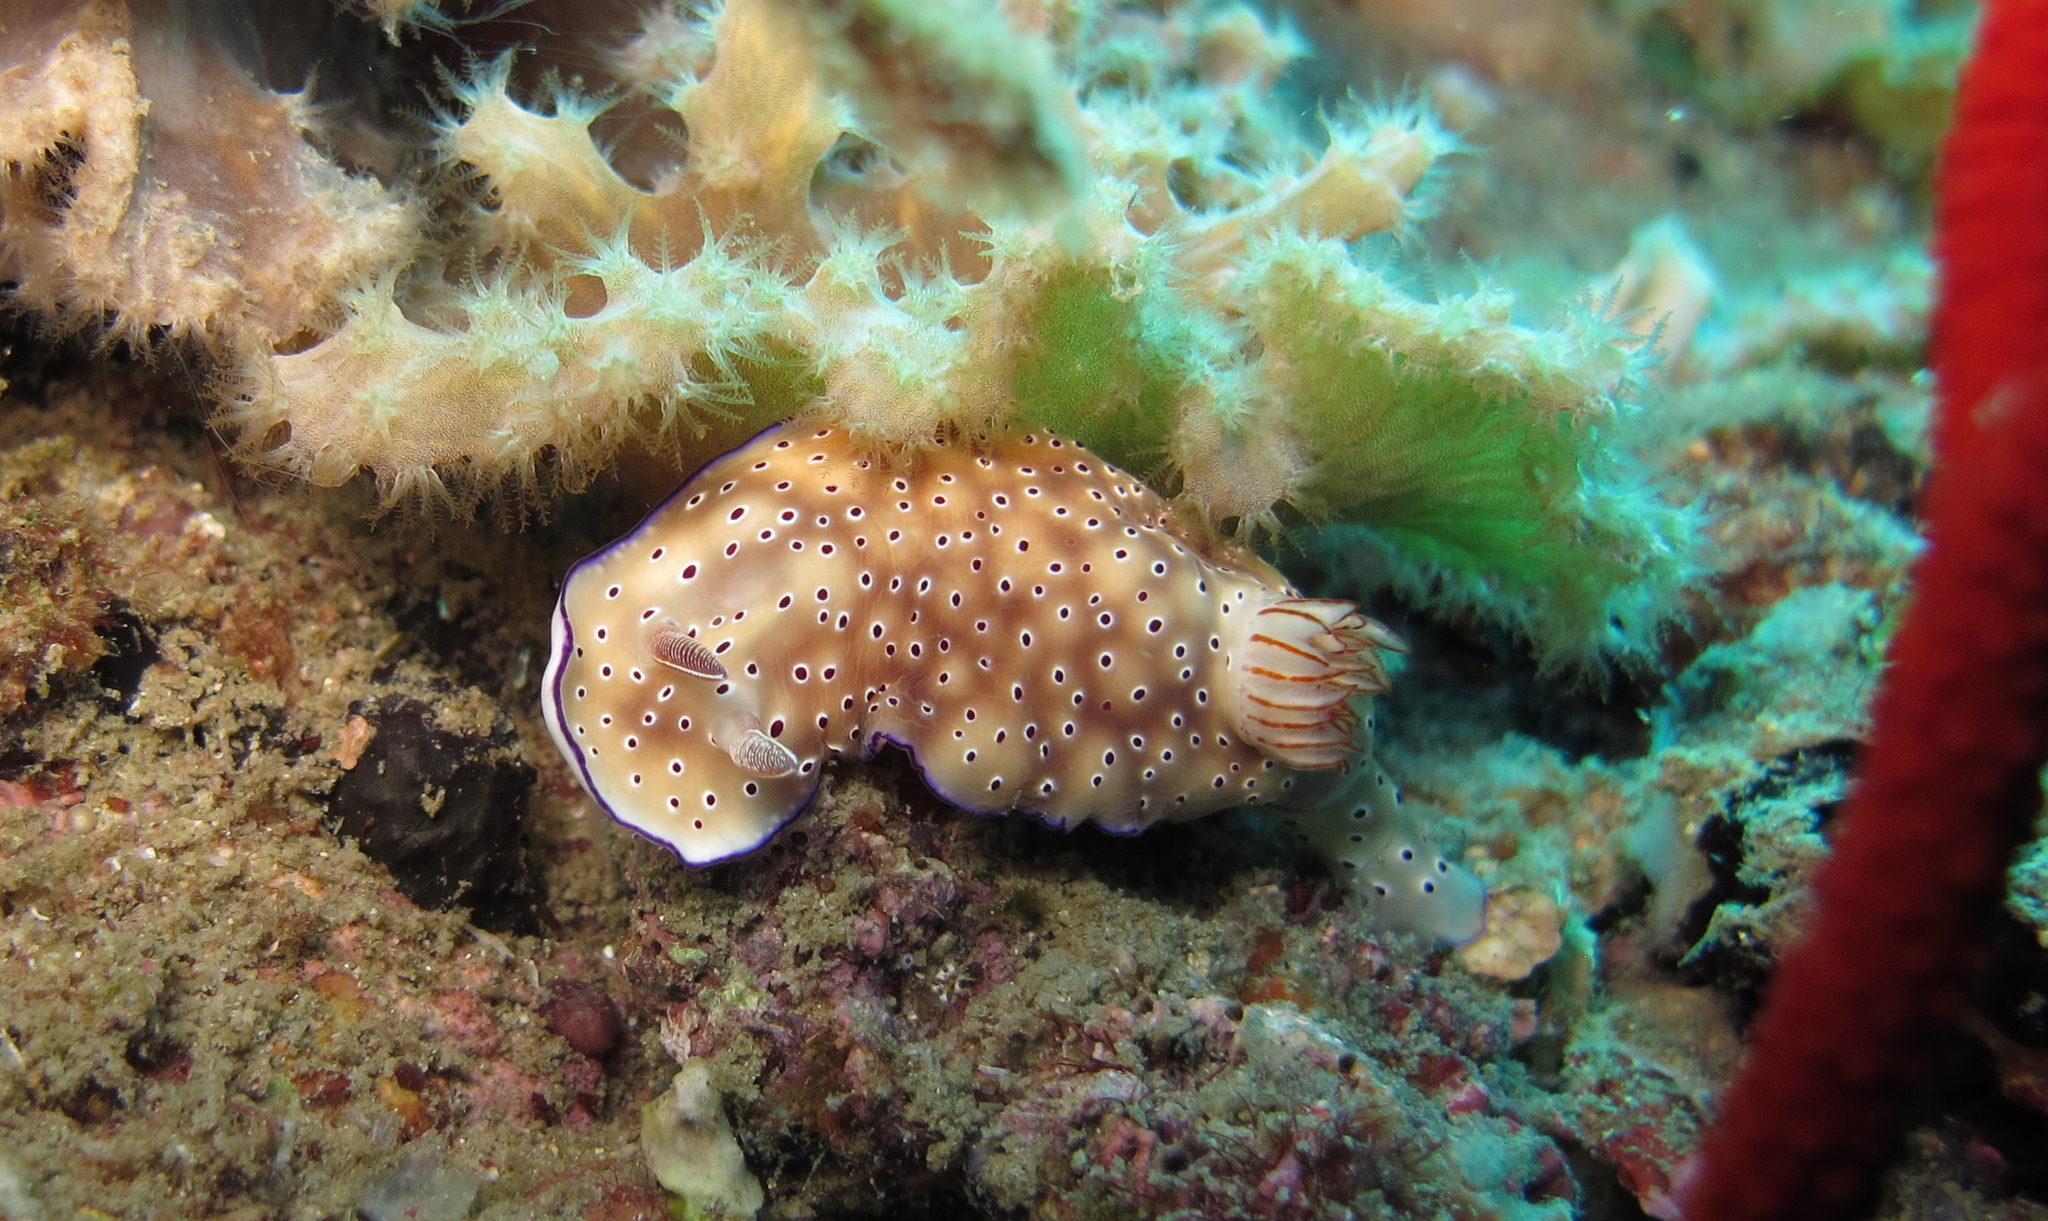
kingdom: Animalia
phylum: Mollusca
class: Gastropoda
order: Nudibranchia
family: Chromodorididae
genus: Hypselodoris
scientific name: Hypselodoris tryoni
